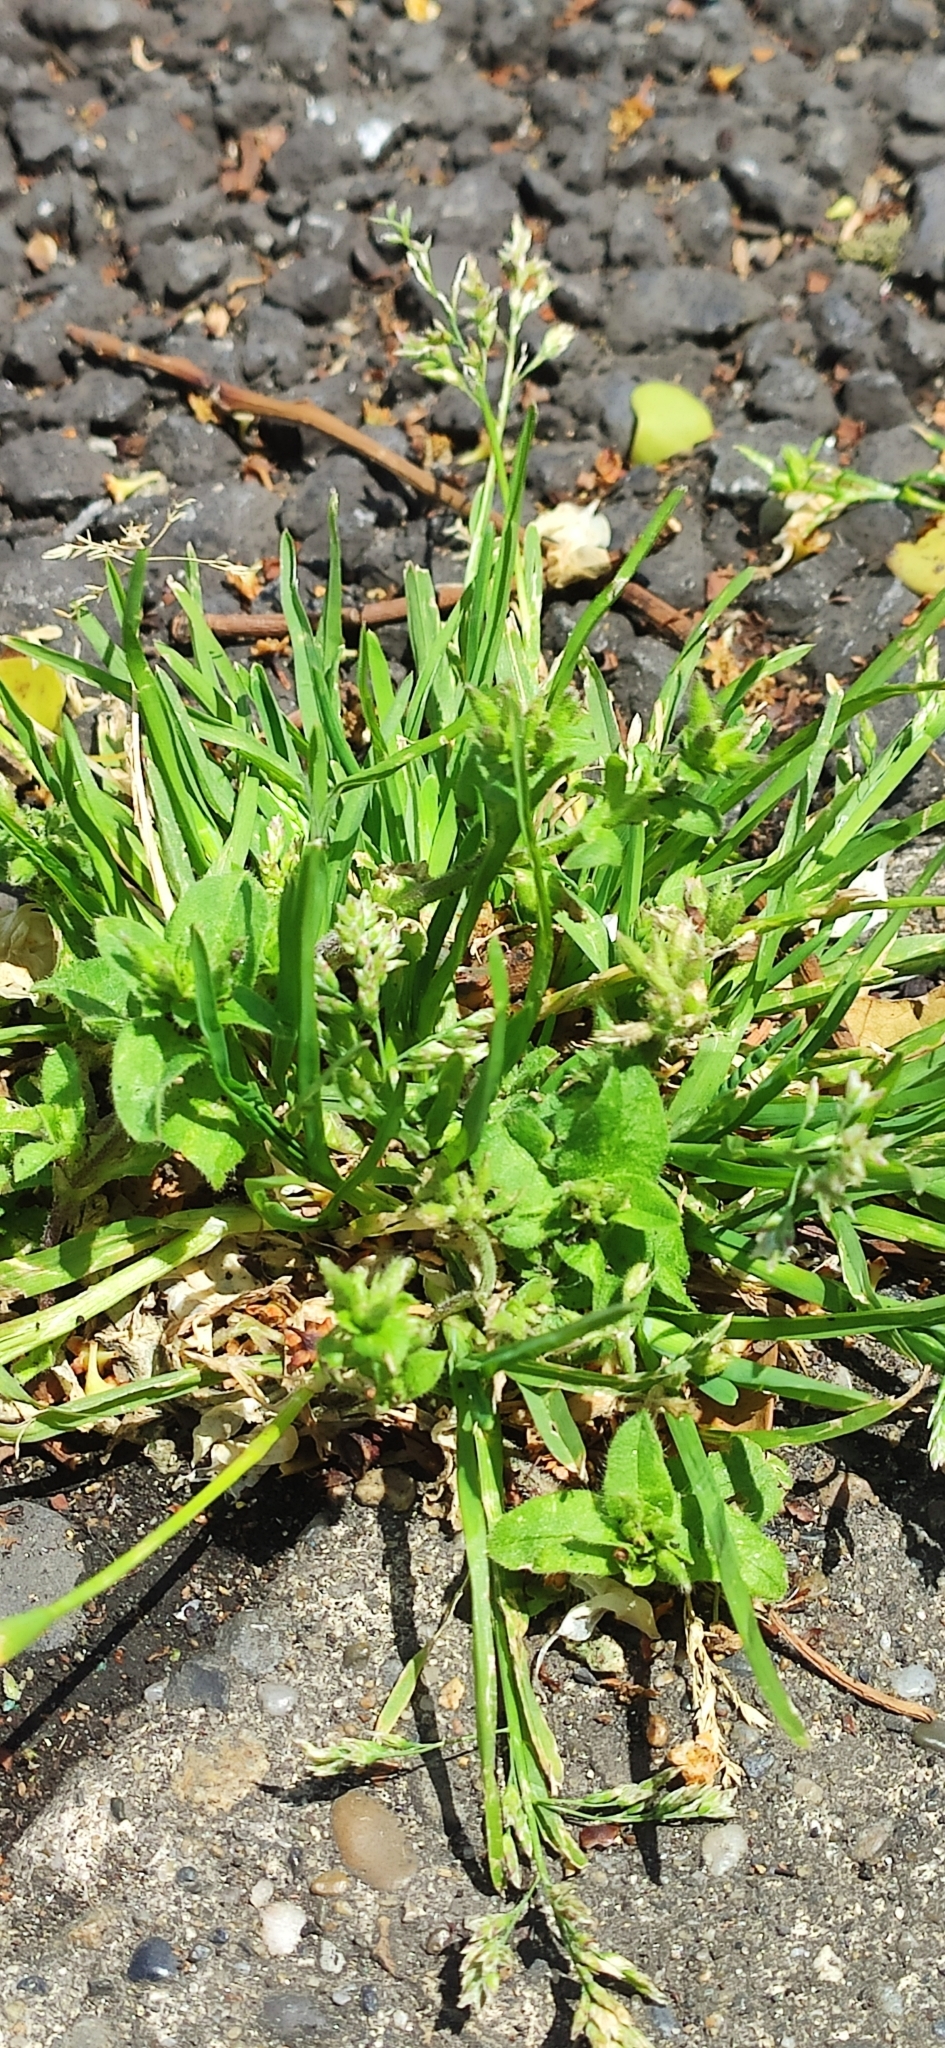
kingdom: Plantae
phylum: Tracheophyta
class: Magnoliopsida
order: Brassicales
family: Brassicaceae
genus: Capsella
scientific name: Capsella bursa-pastoris
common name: Shepherd's purse
